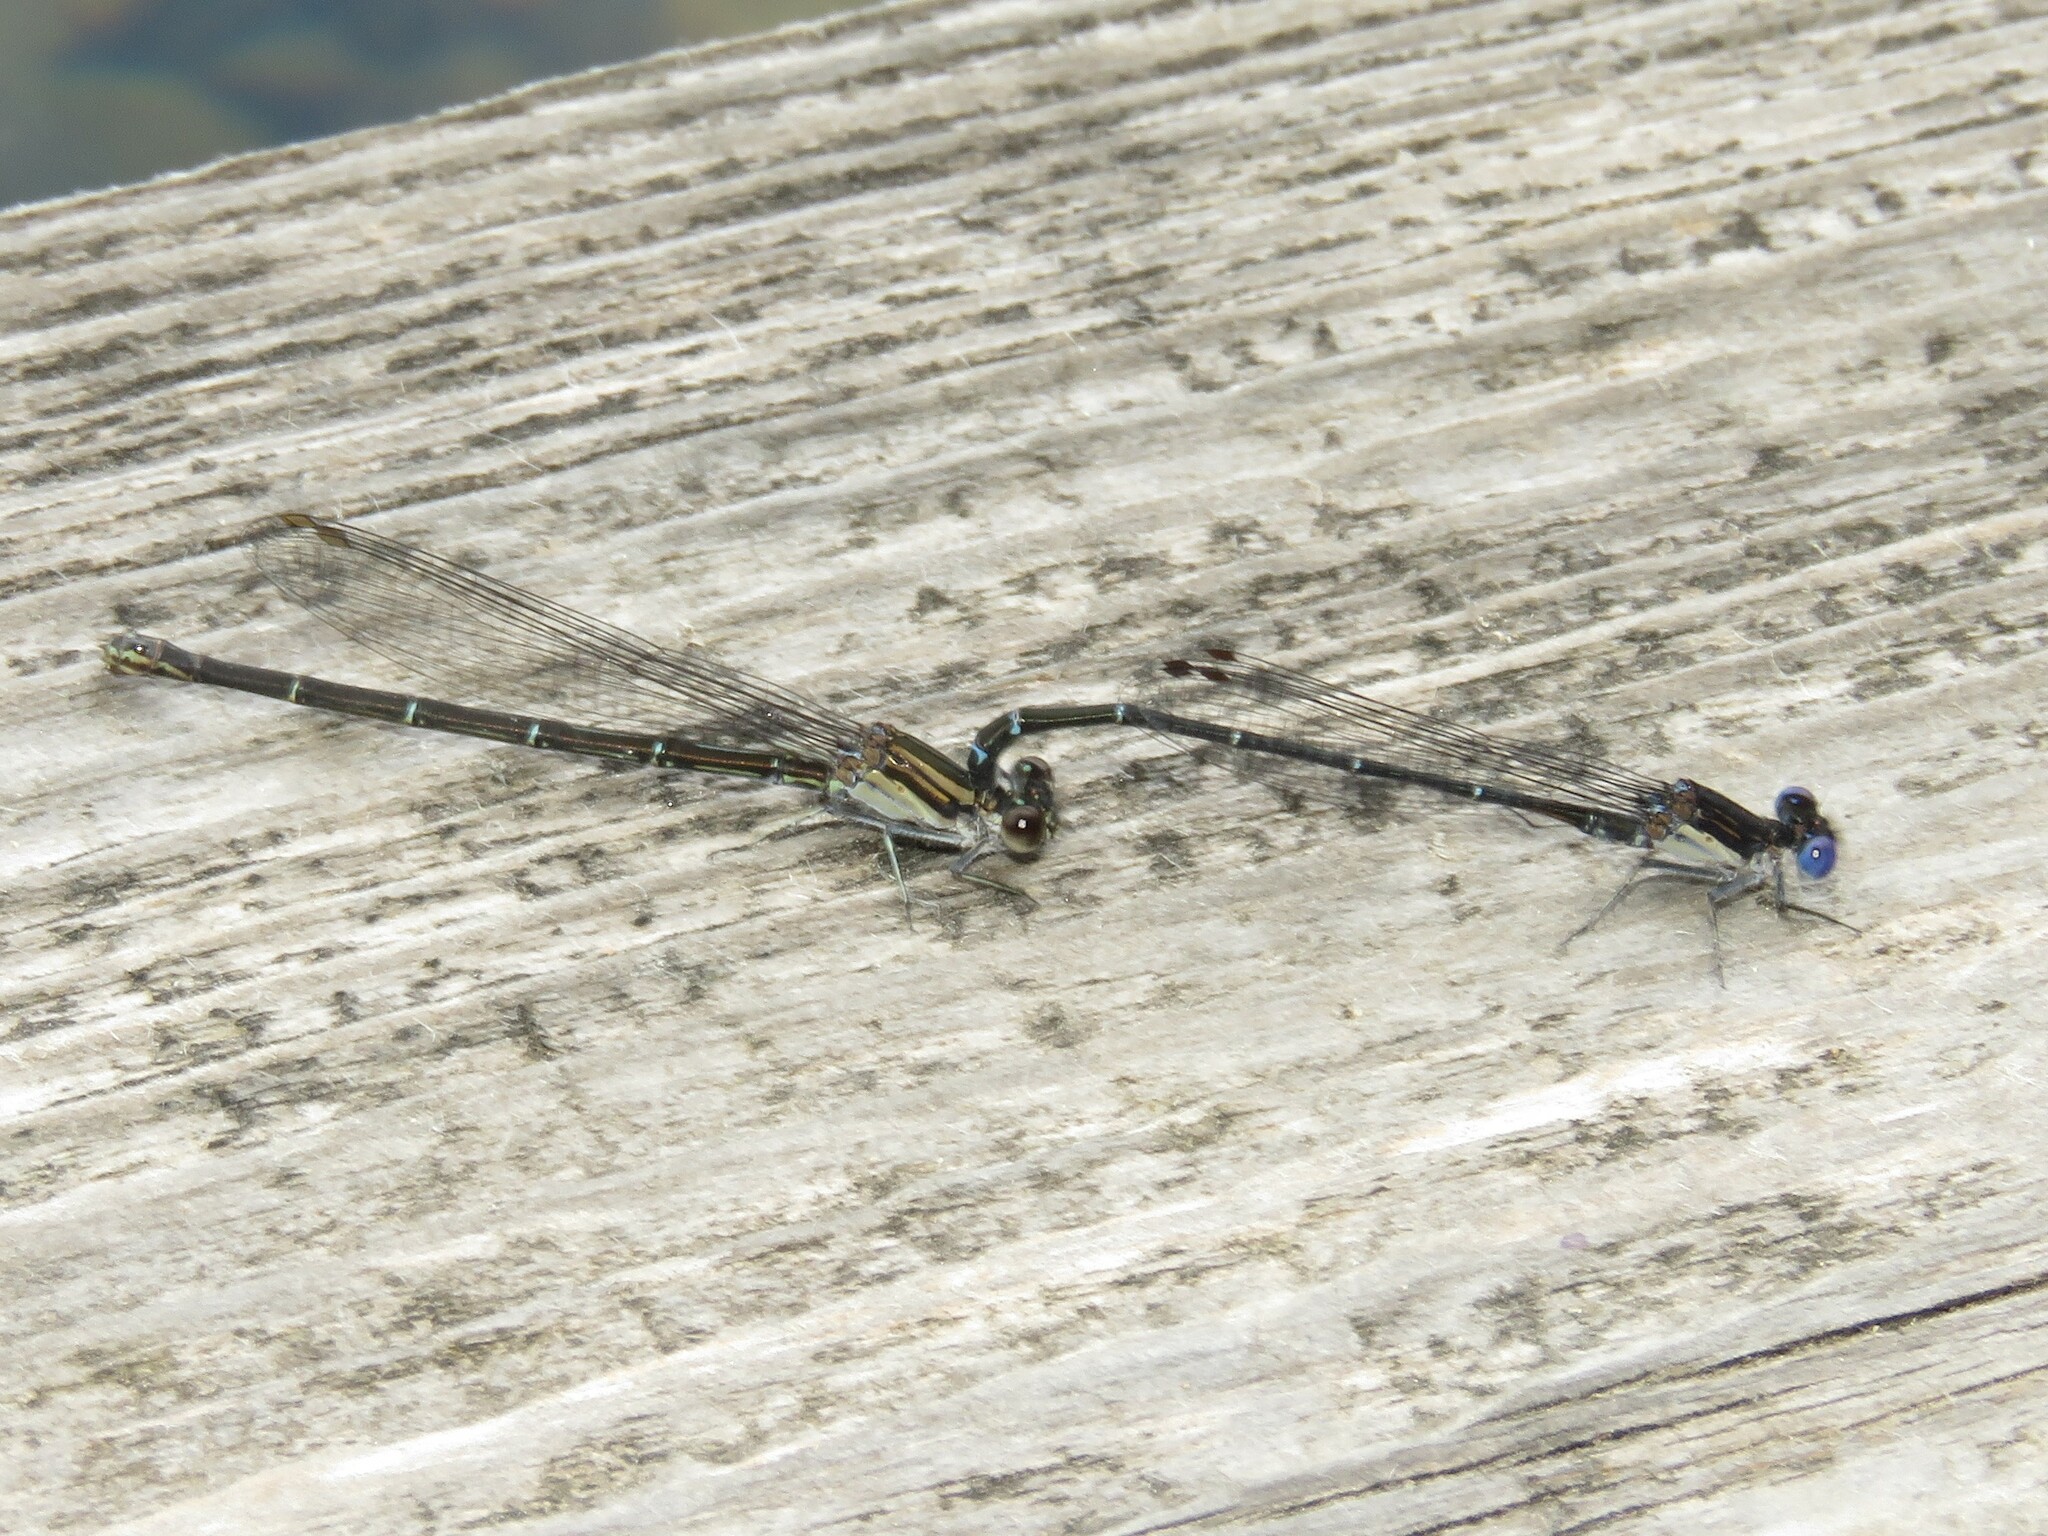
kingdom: Animalia
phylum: Arthropoda
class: Insecta
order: Odonata
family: Coenagrionidae
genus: Argia
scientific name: Argia translata
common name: Dusky dancer
